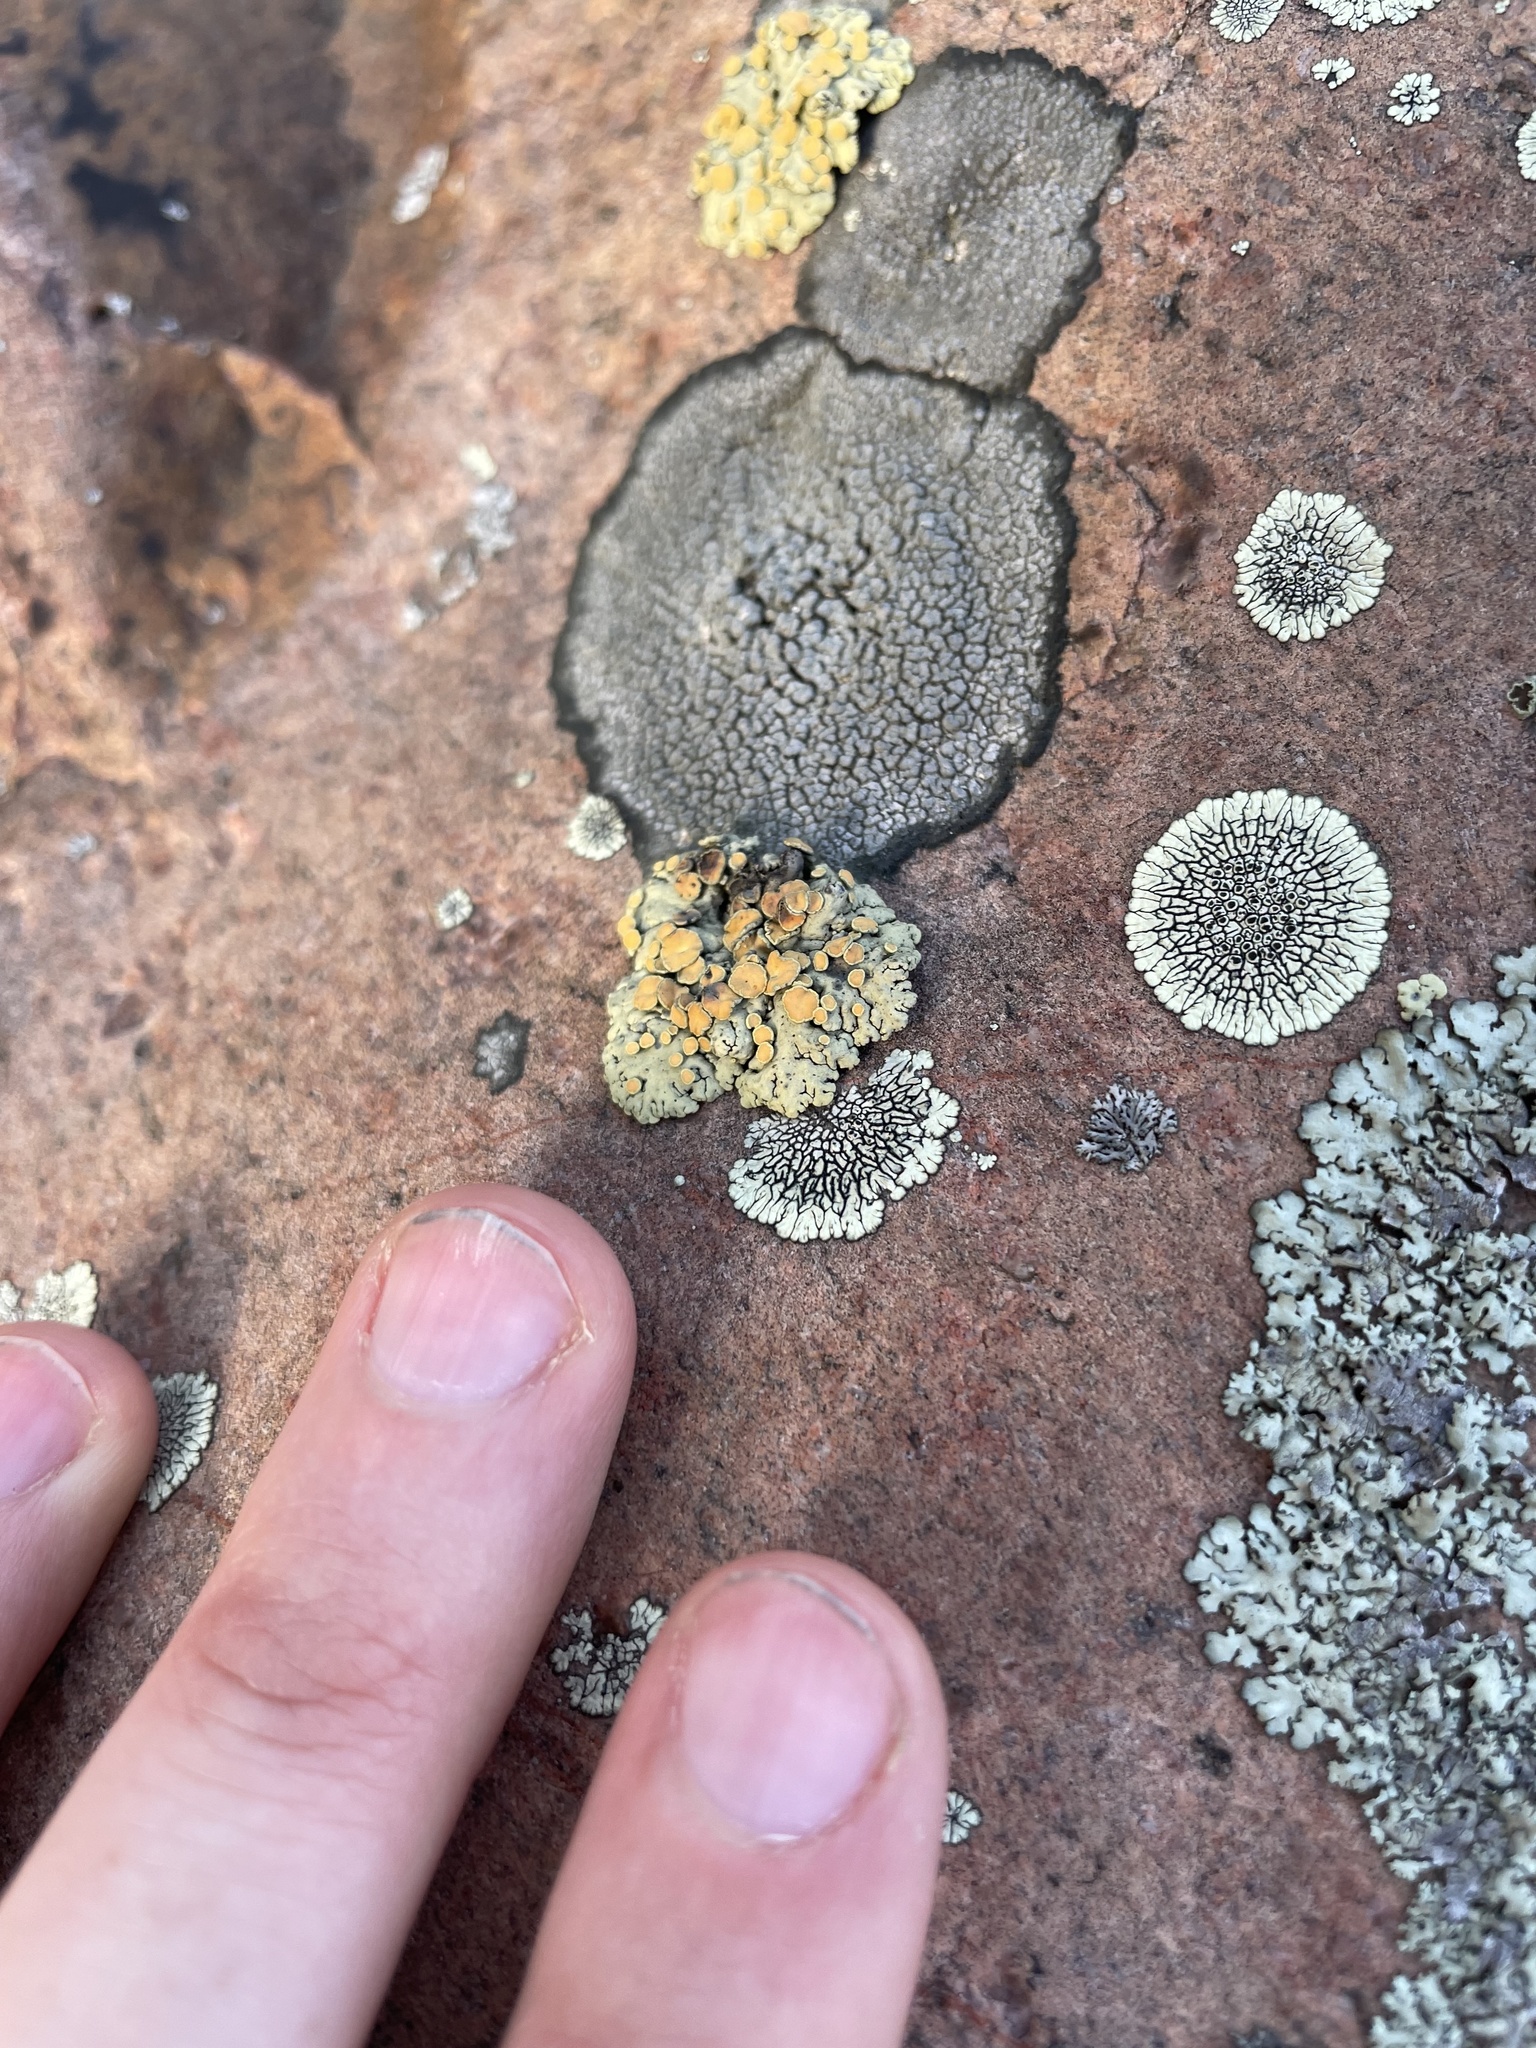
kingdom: Fungi
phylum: Ascomycota
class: Lecanoromycetes
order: Lecanorales
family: Lecanoraceae
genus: Omphalodina
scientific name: Omphalodina chrysoleuca
